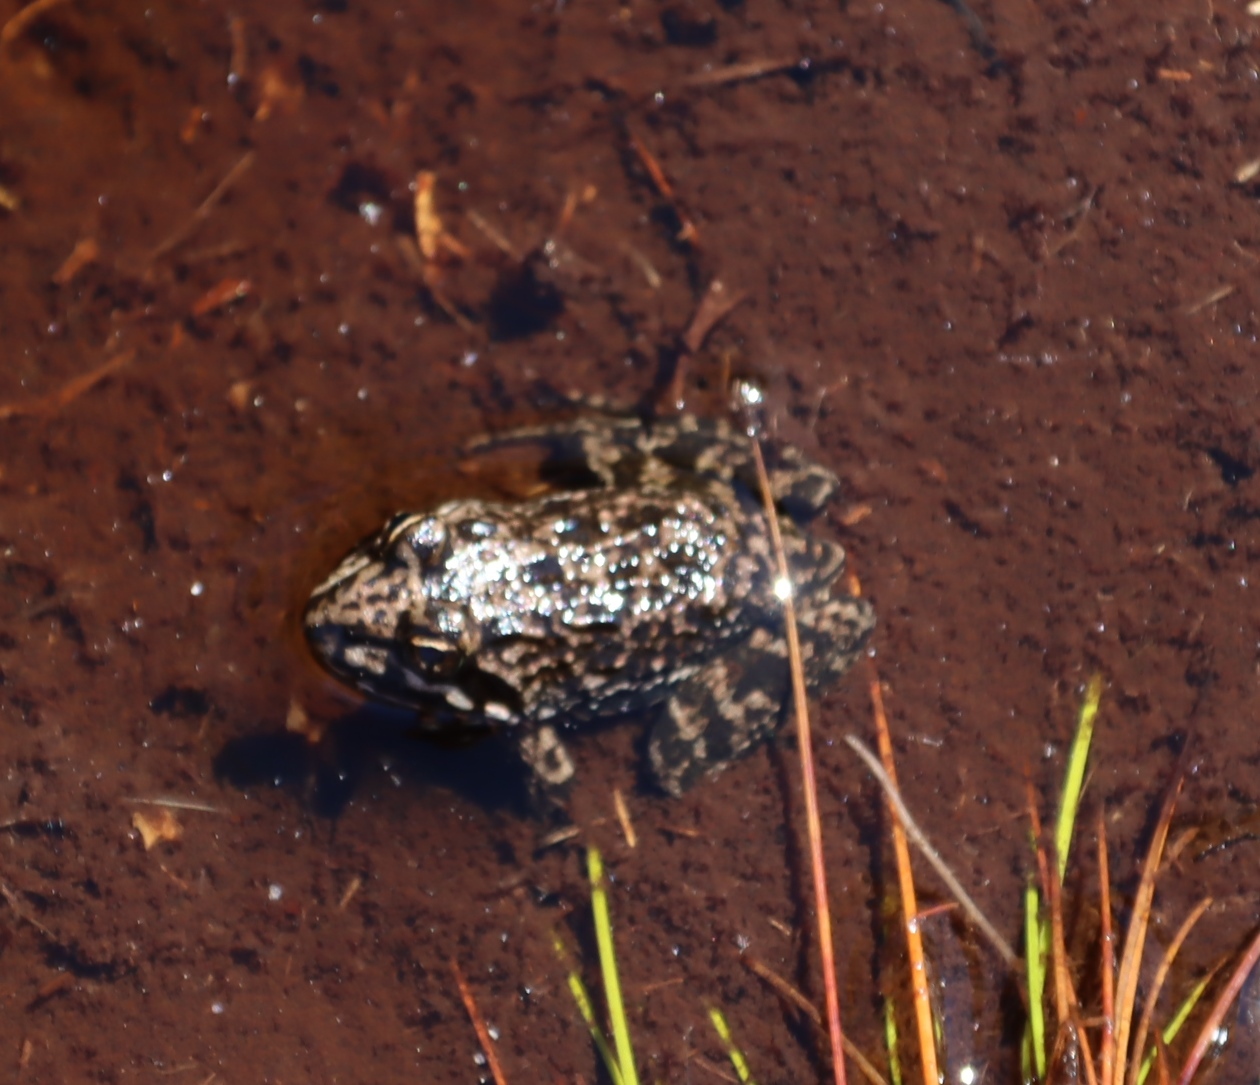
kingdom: Animalia
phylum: Chordata
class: Amphibia
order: Anura
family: Pyxicephalidae
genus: Amietia
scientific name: Amietia fuscigula
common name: Cape rana
